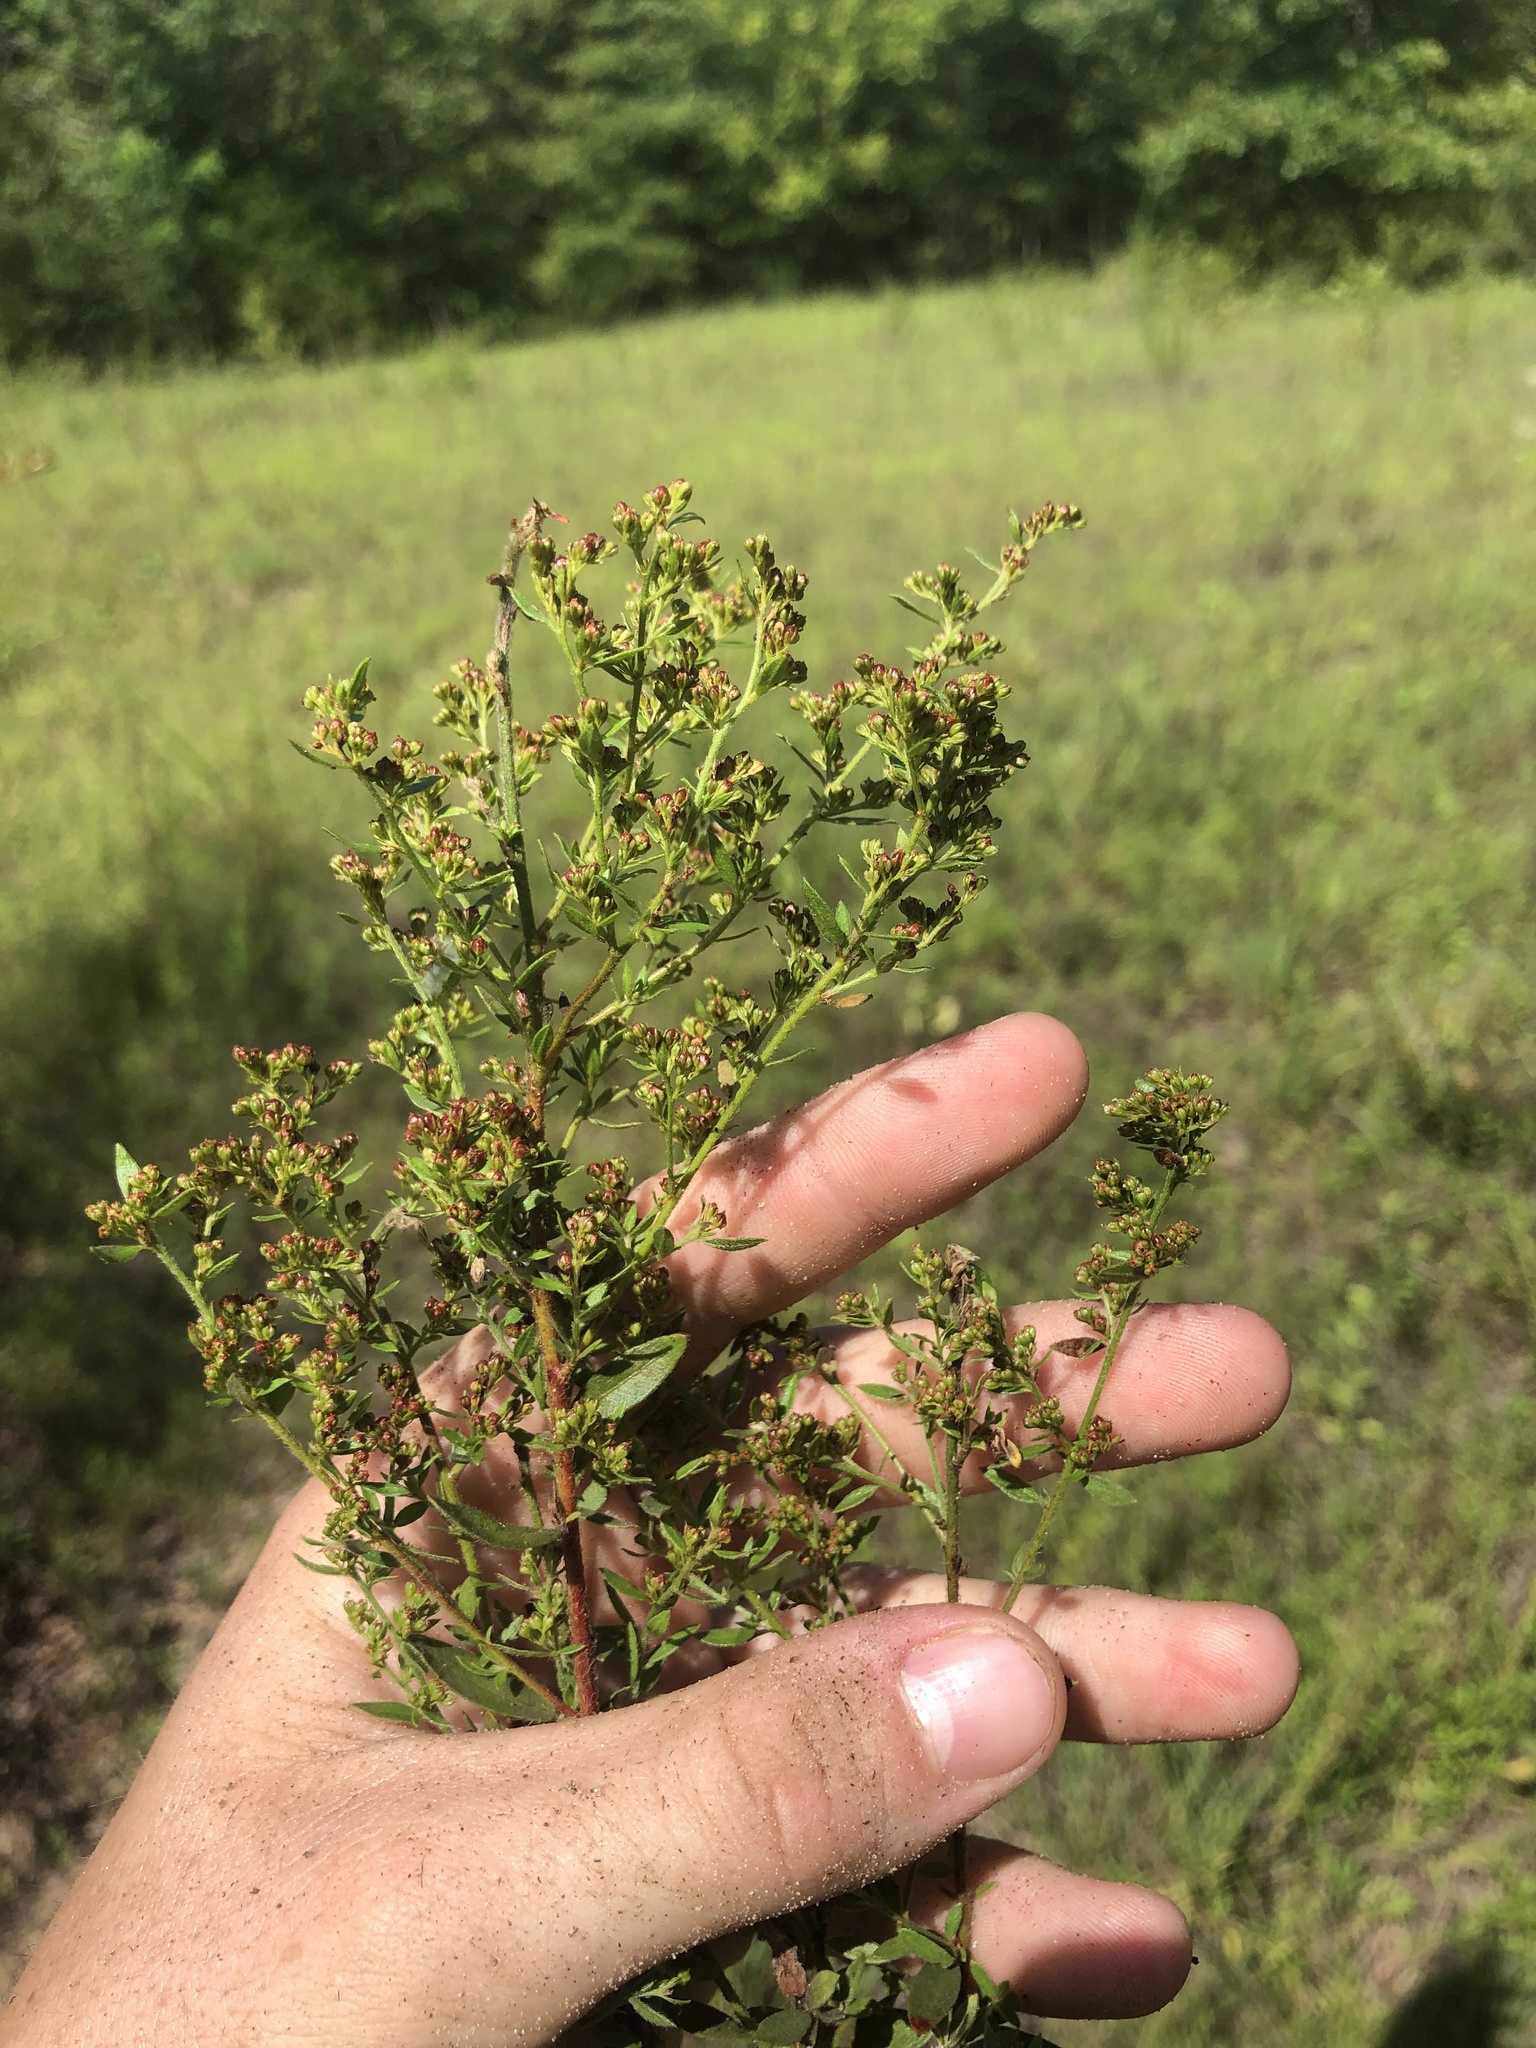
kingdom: Plantae
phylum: Tracheophyta
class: Magnoliopsida
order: Malvales
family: Cistaceae
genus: Lechea
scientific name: Lechea mucronata
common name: Hairy pinweed
